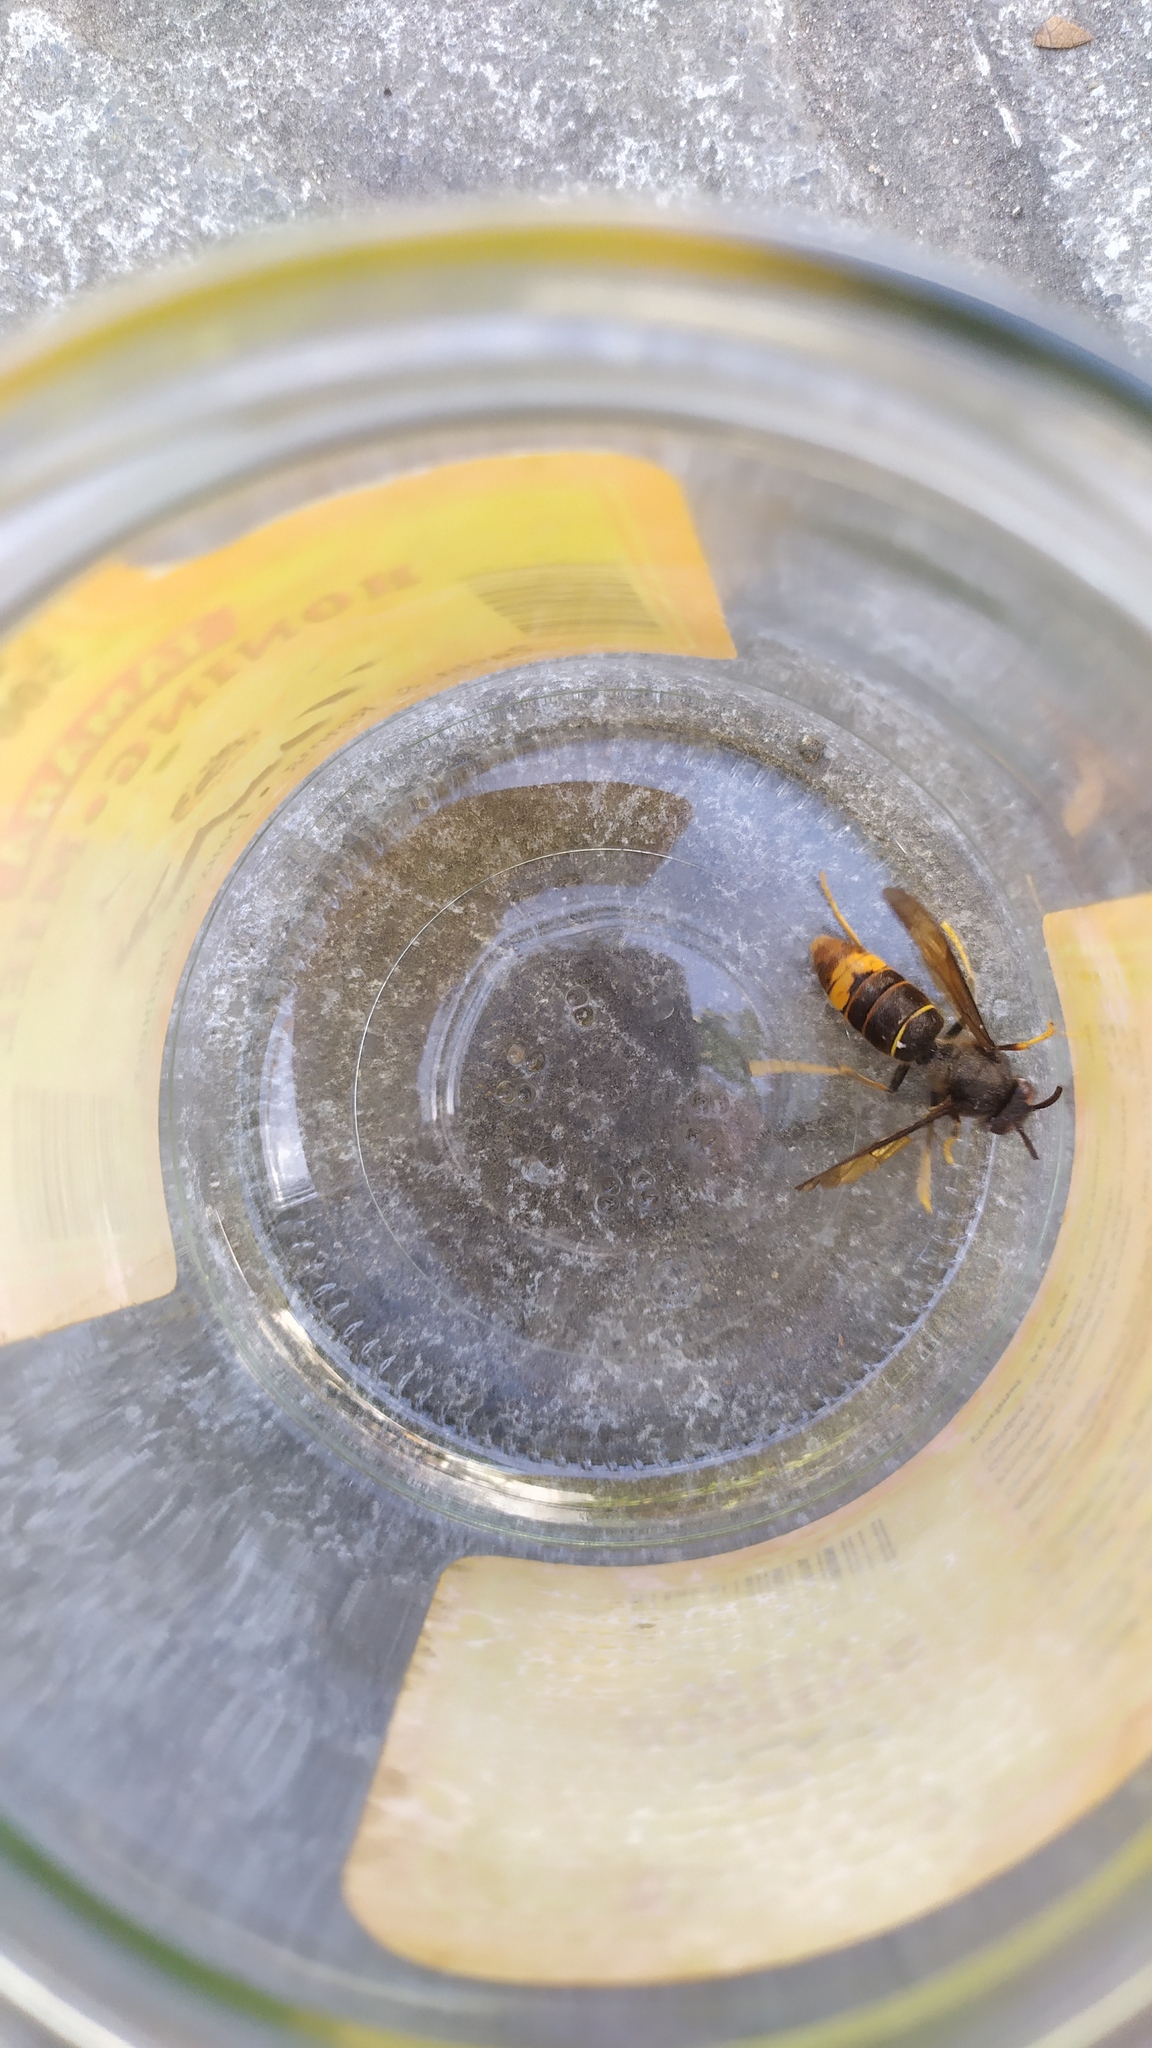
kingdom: Animalia
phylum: Arthropoda
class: Insecta
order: Hymenoptera
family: Vespidae
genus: Vespa
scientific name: Vespa velutina
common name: Asian hornet
